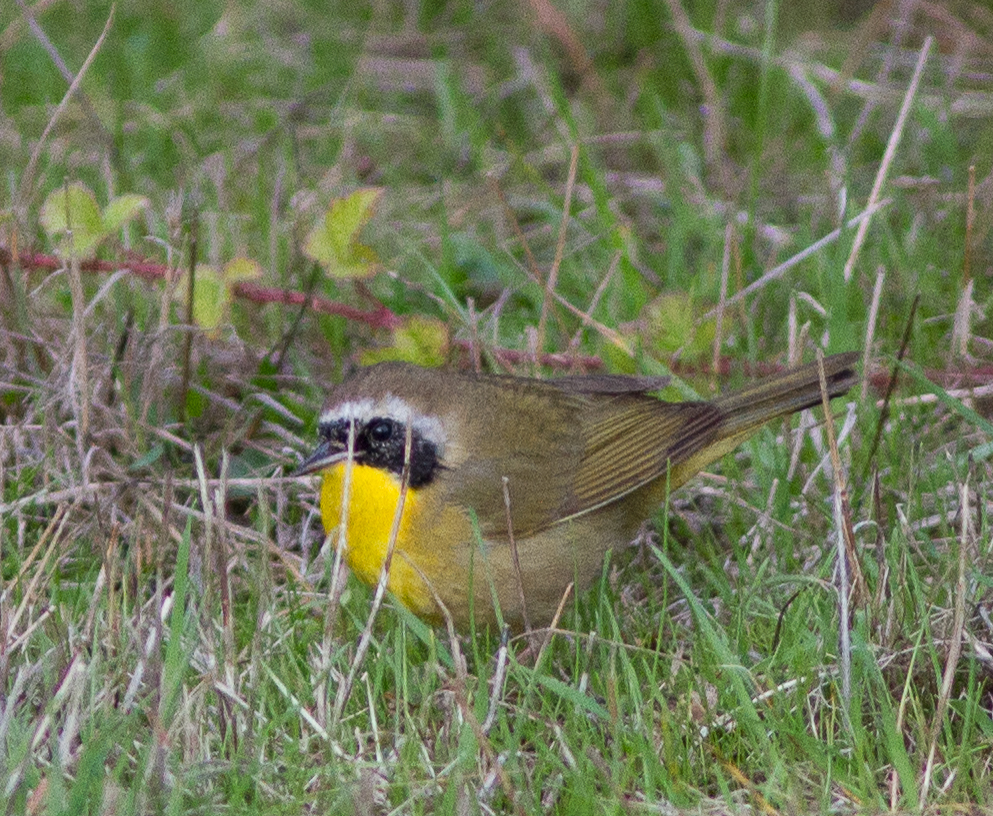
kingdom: Animalia
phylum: Chordata
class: Aves
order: Passeriformes
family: Parulidae
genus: Geothlypis
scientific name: Geothlypis trichas
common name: Common yellowthroat
